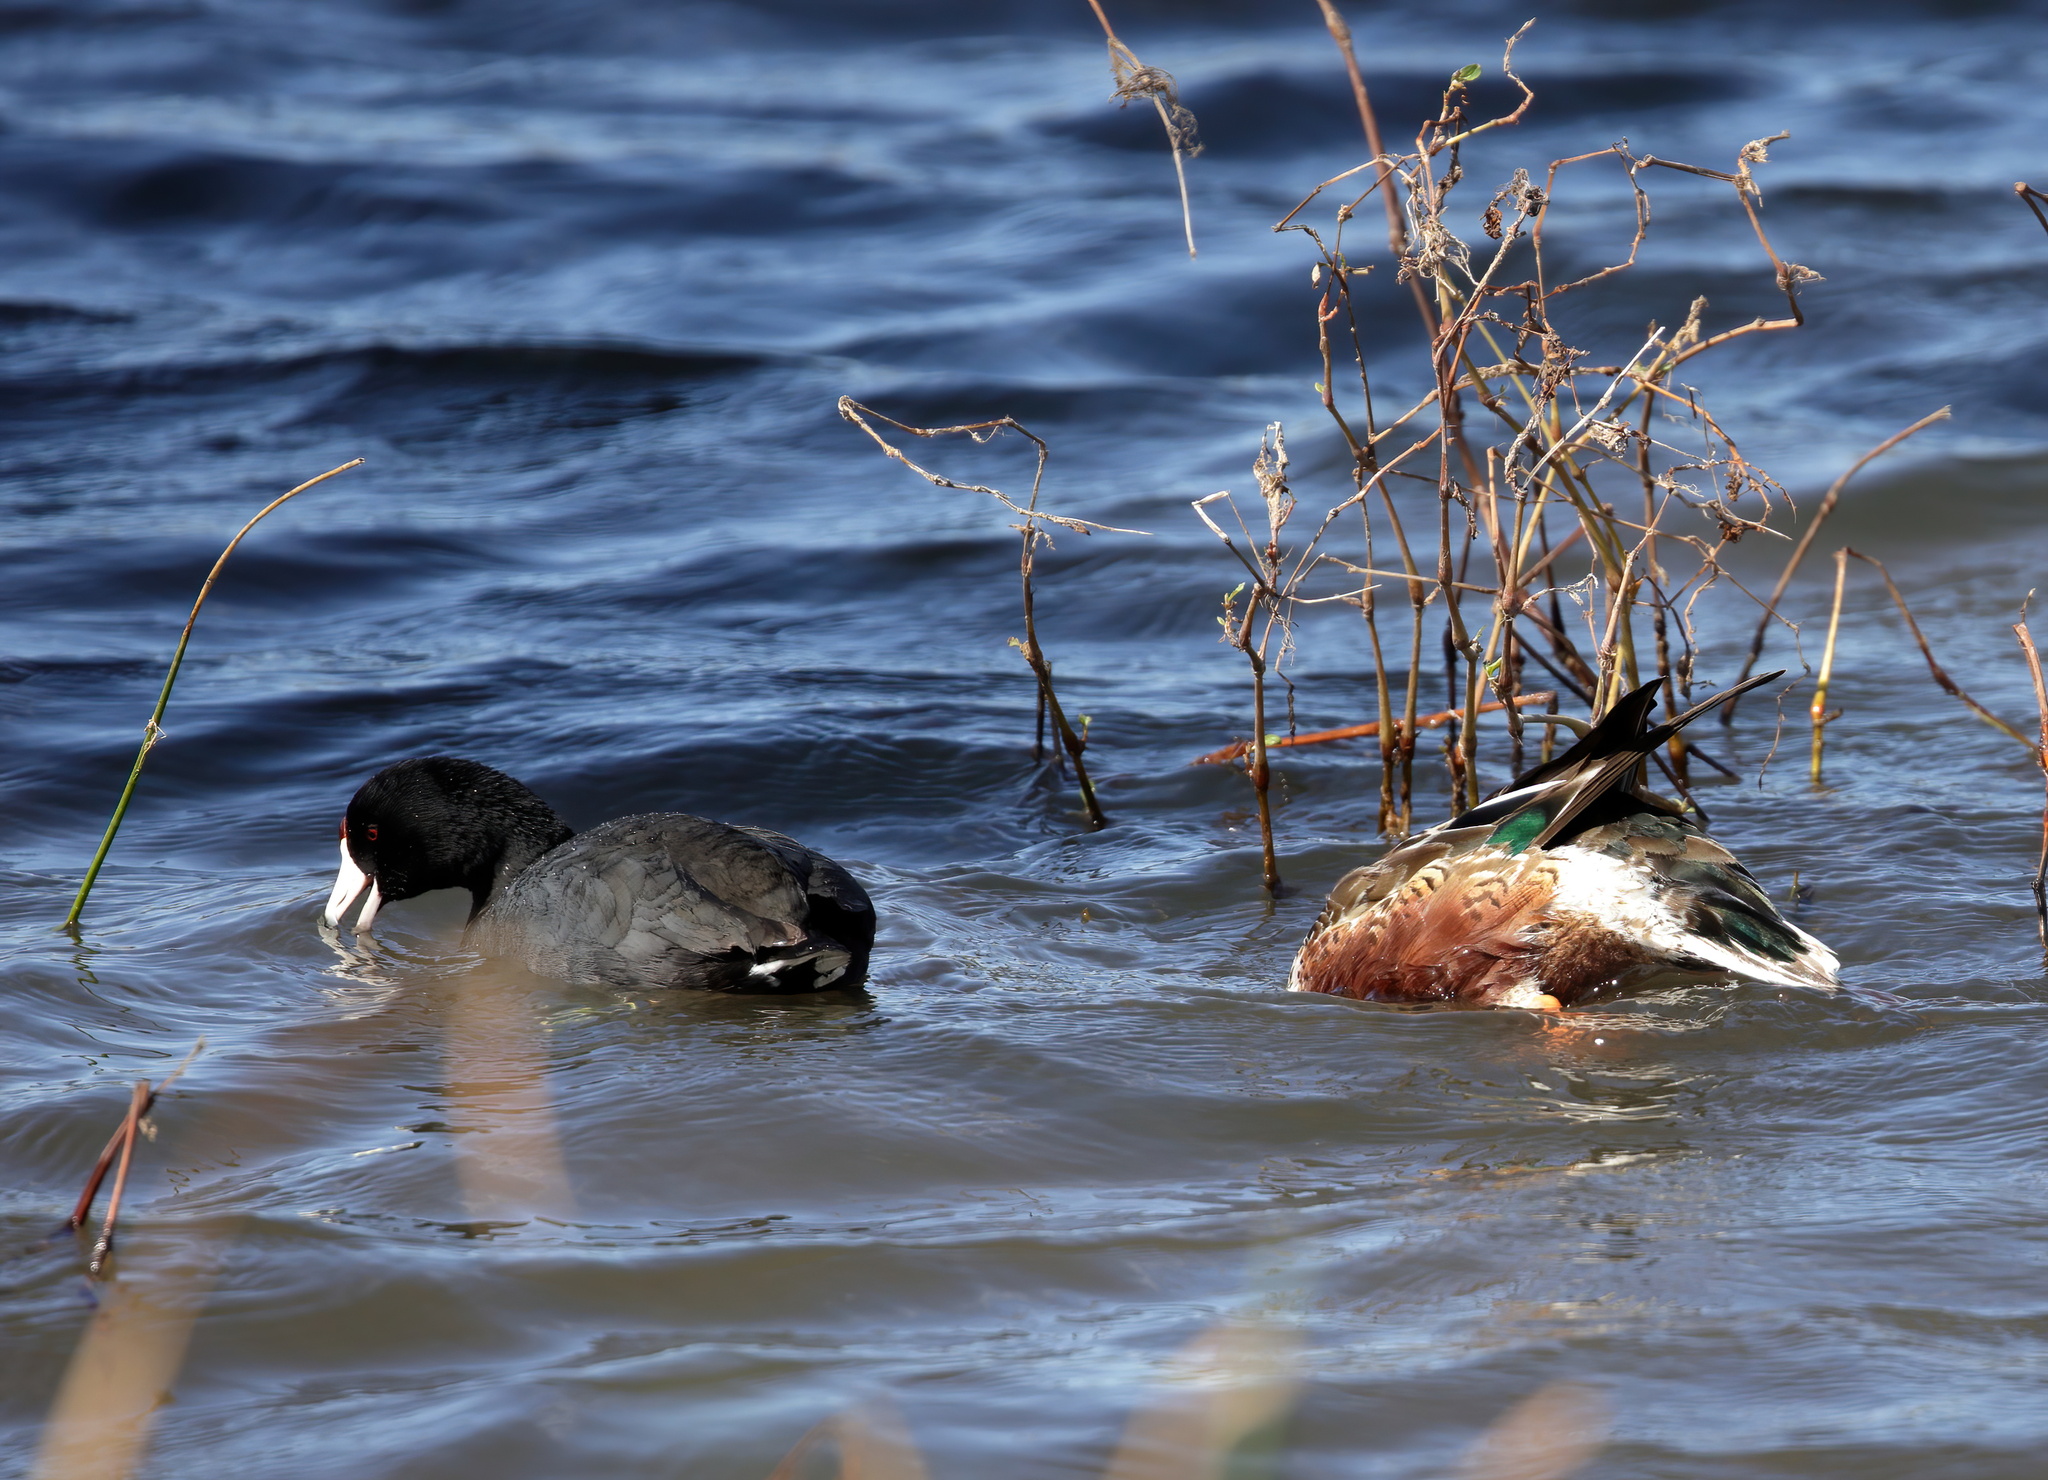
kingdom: Animalia
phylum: Chordata
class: Aves
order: Gruiformes
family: Rallidae
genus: Fulica
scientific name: Fulica americana
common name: American coot
